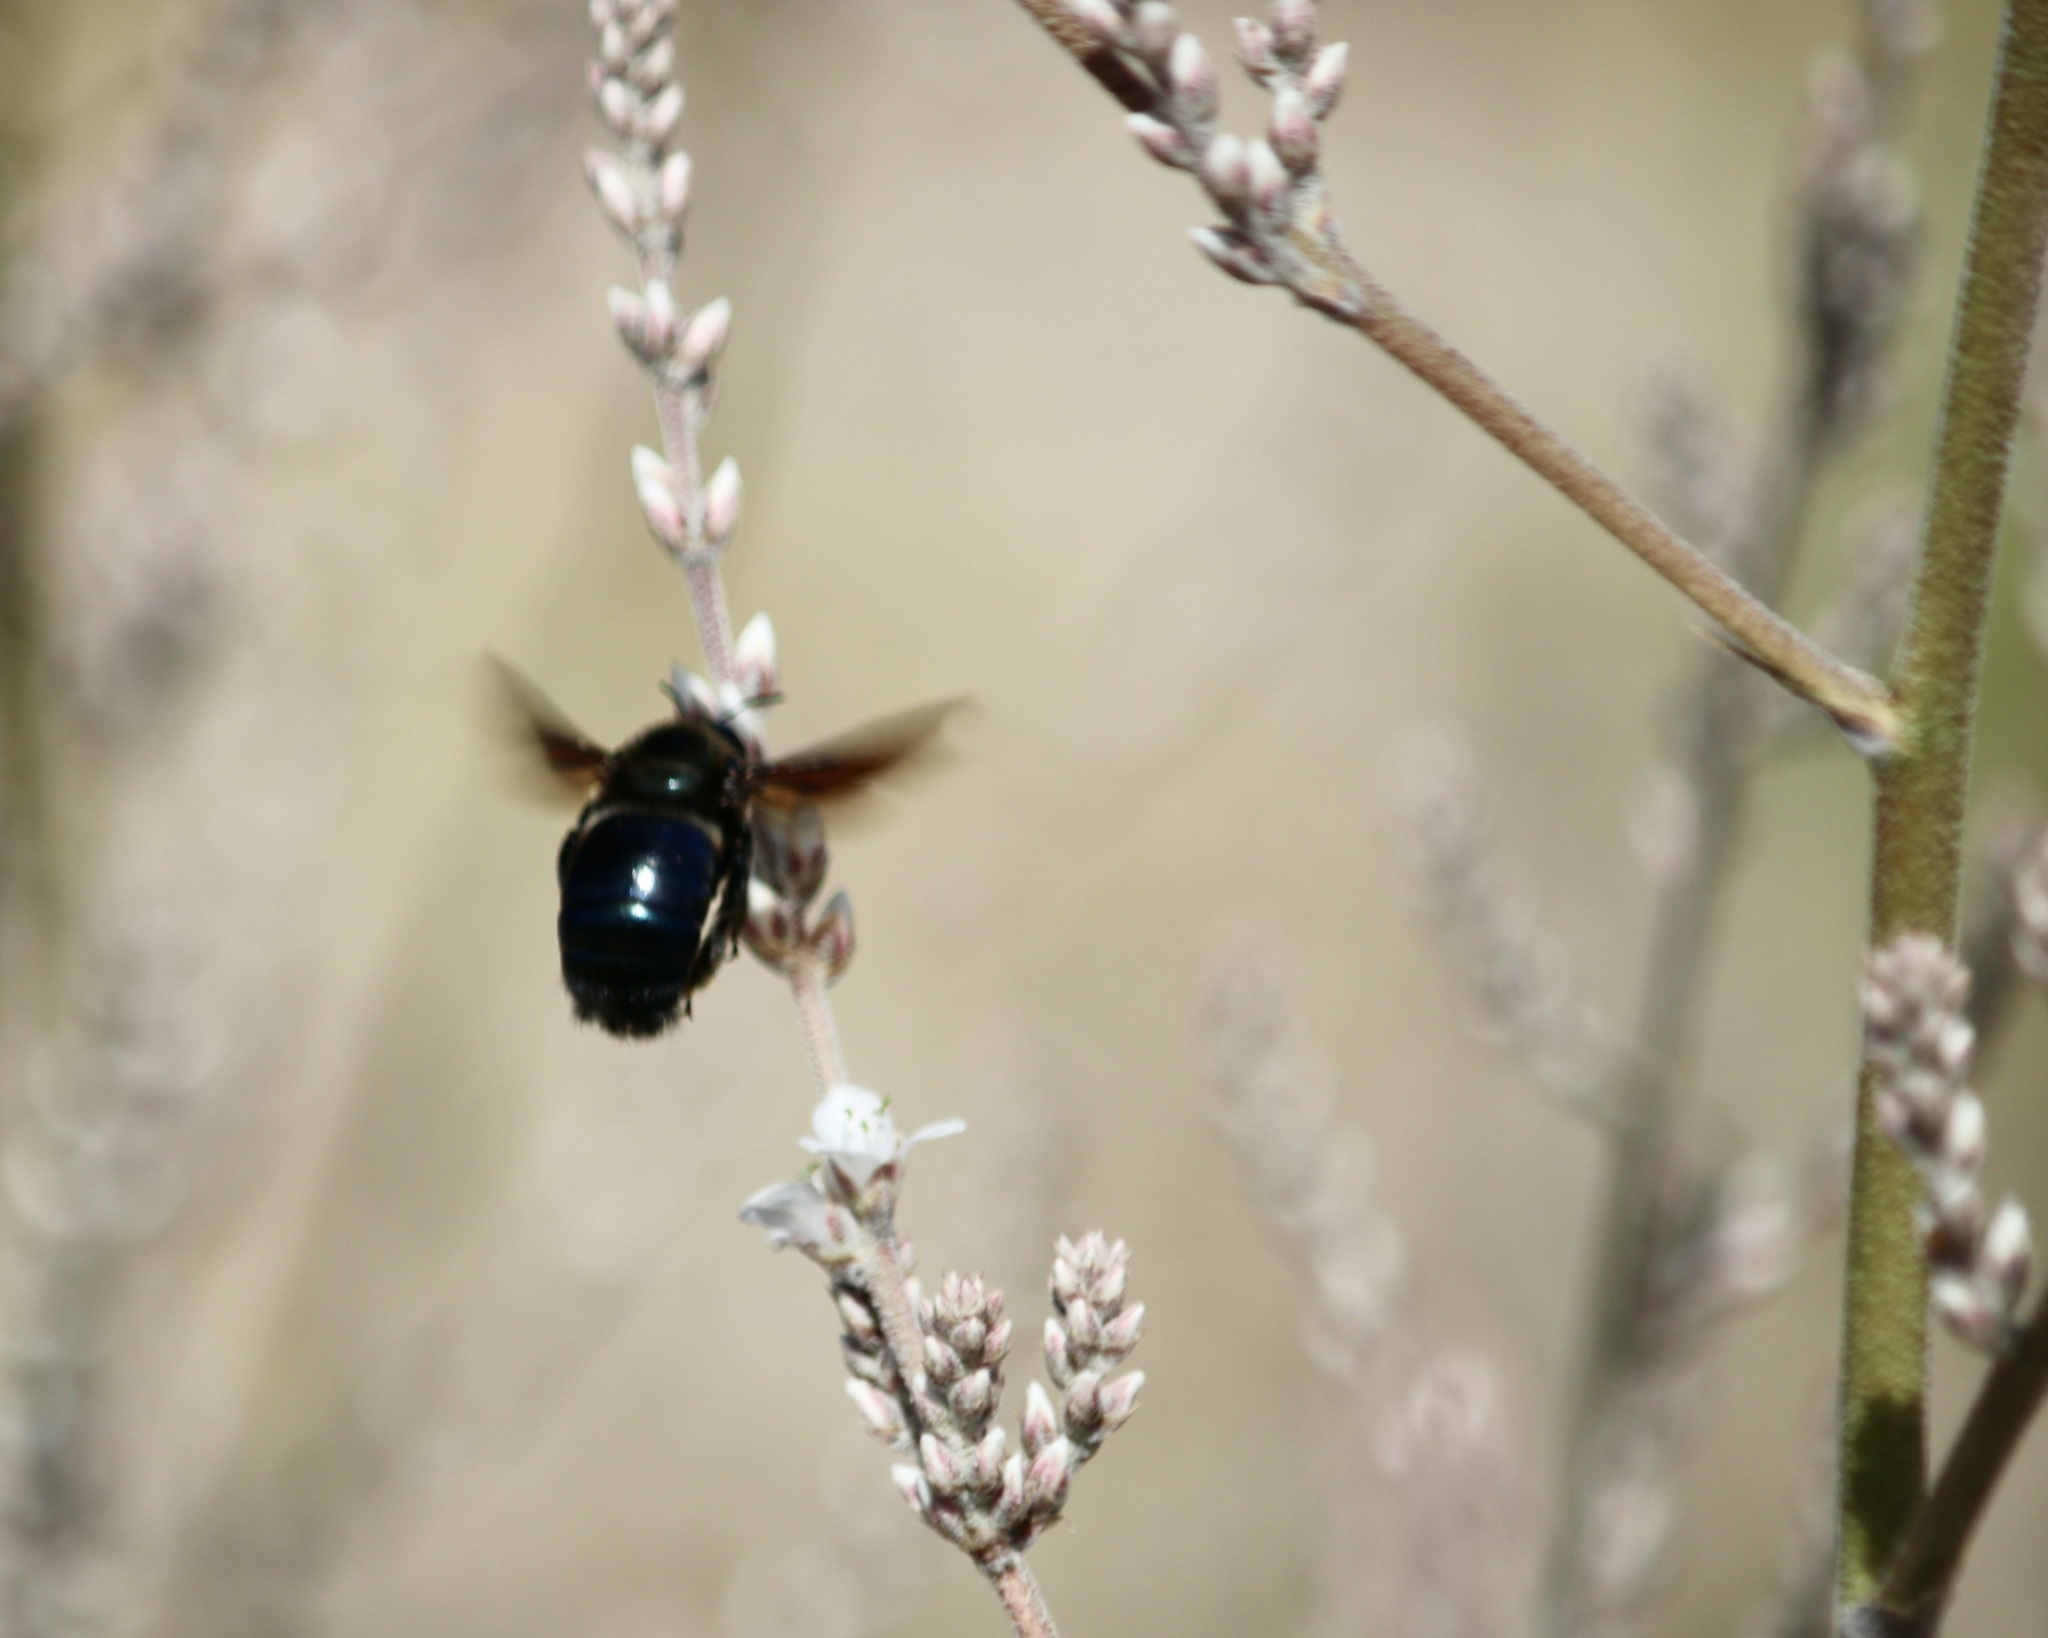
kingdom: Animalia
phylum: Arthropoda
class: Insecta
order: Hymenoptera
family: Apidae
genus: Xylocopa
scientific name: Xylocopa californica
